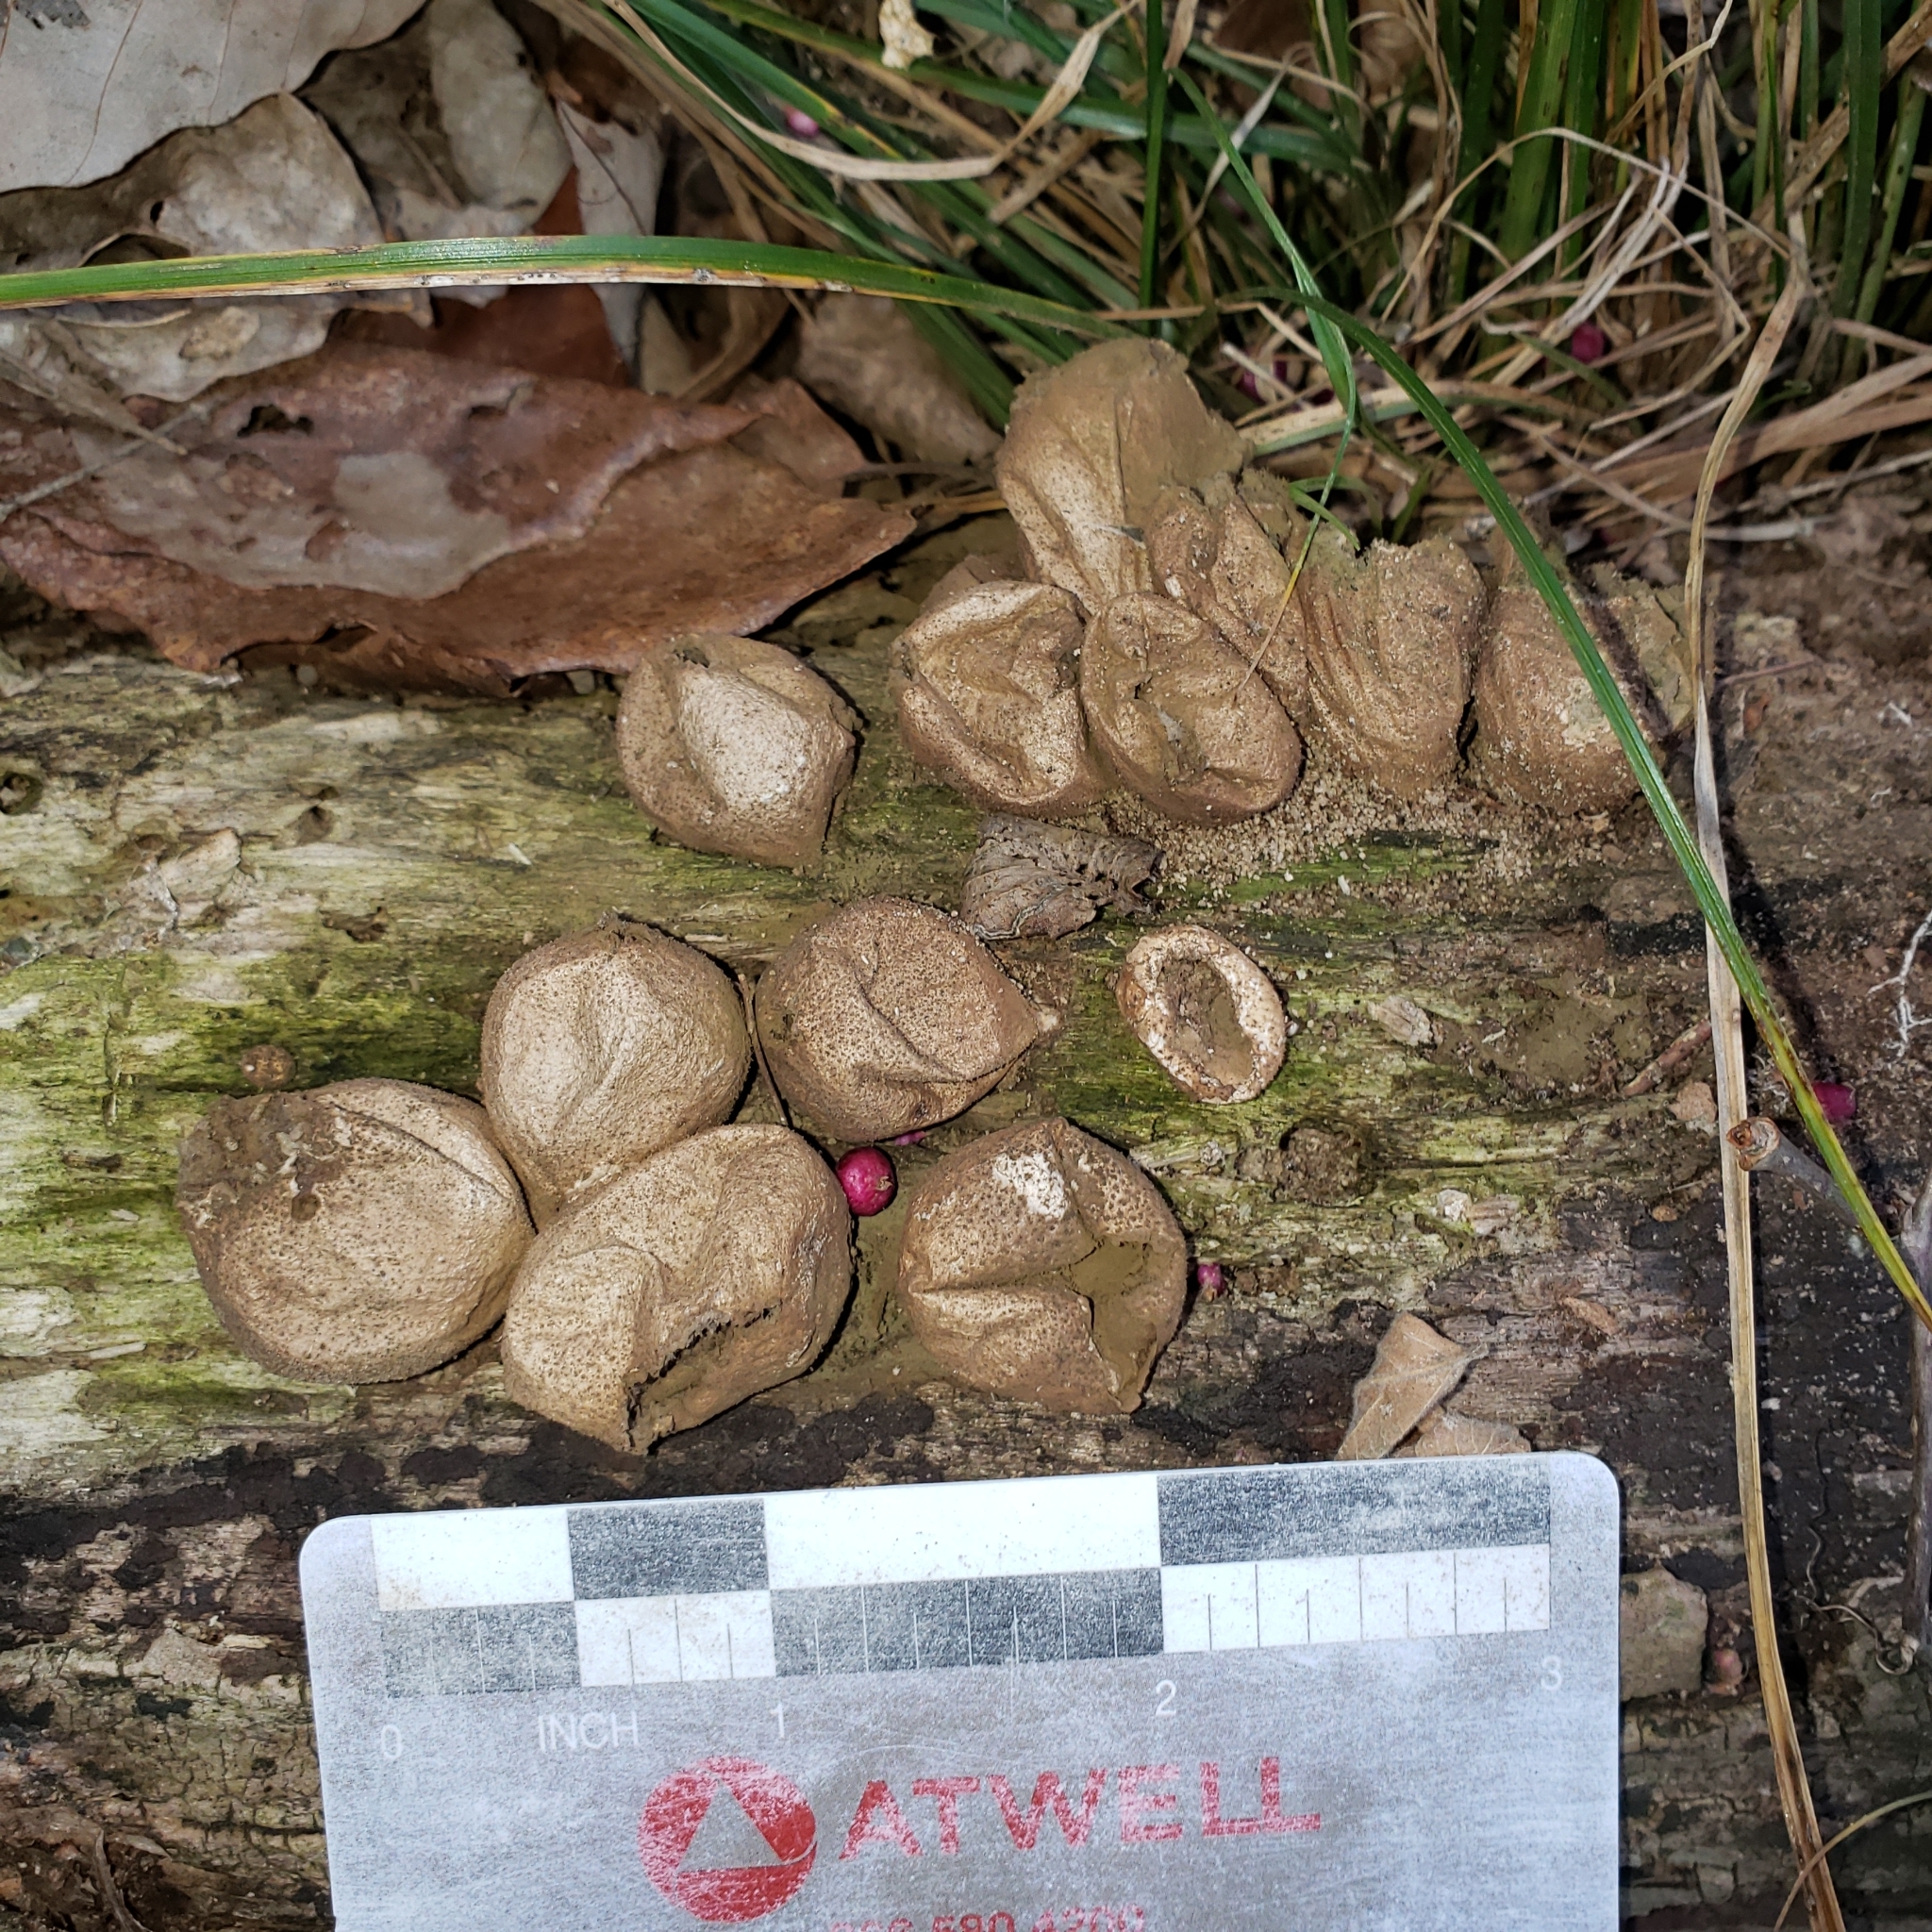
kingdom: Fungi
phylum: Basidiomycota
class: Agaricomycetes
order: Agaricales
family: Lycoperdaceae
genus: Apioperdon
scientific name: Apioperdon pyriforme
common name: Pear-shaped puffball
